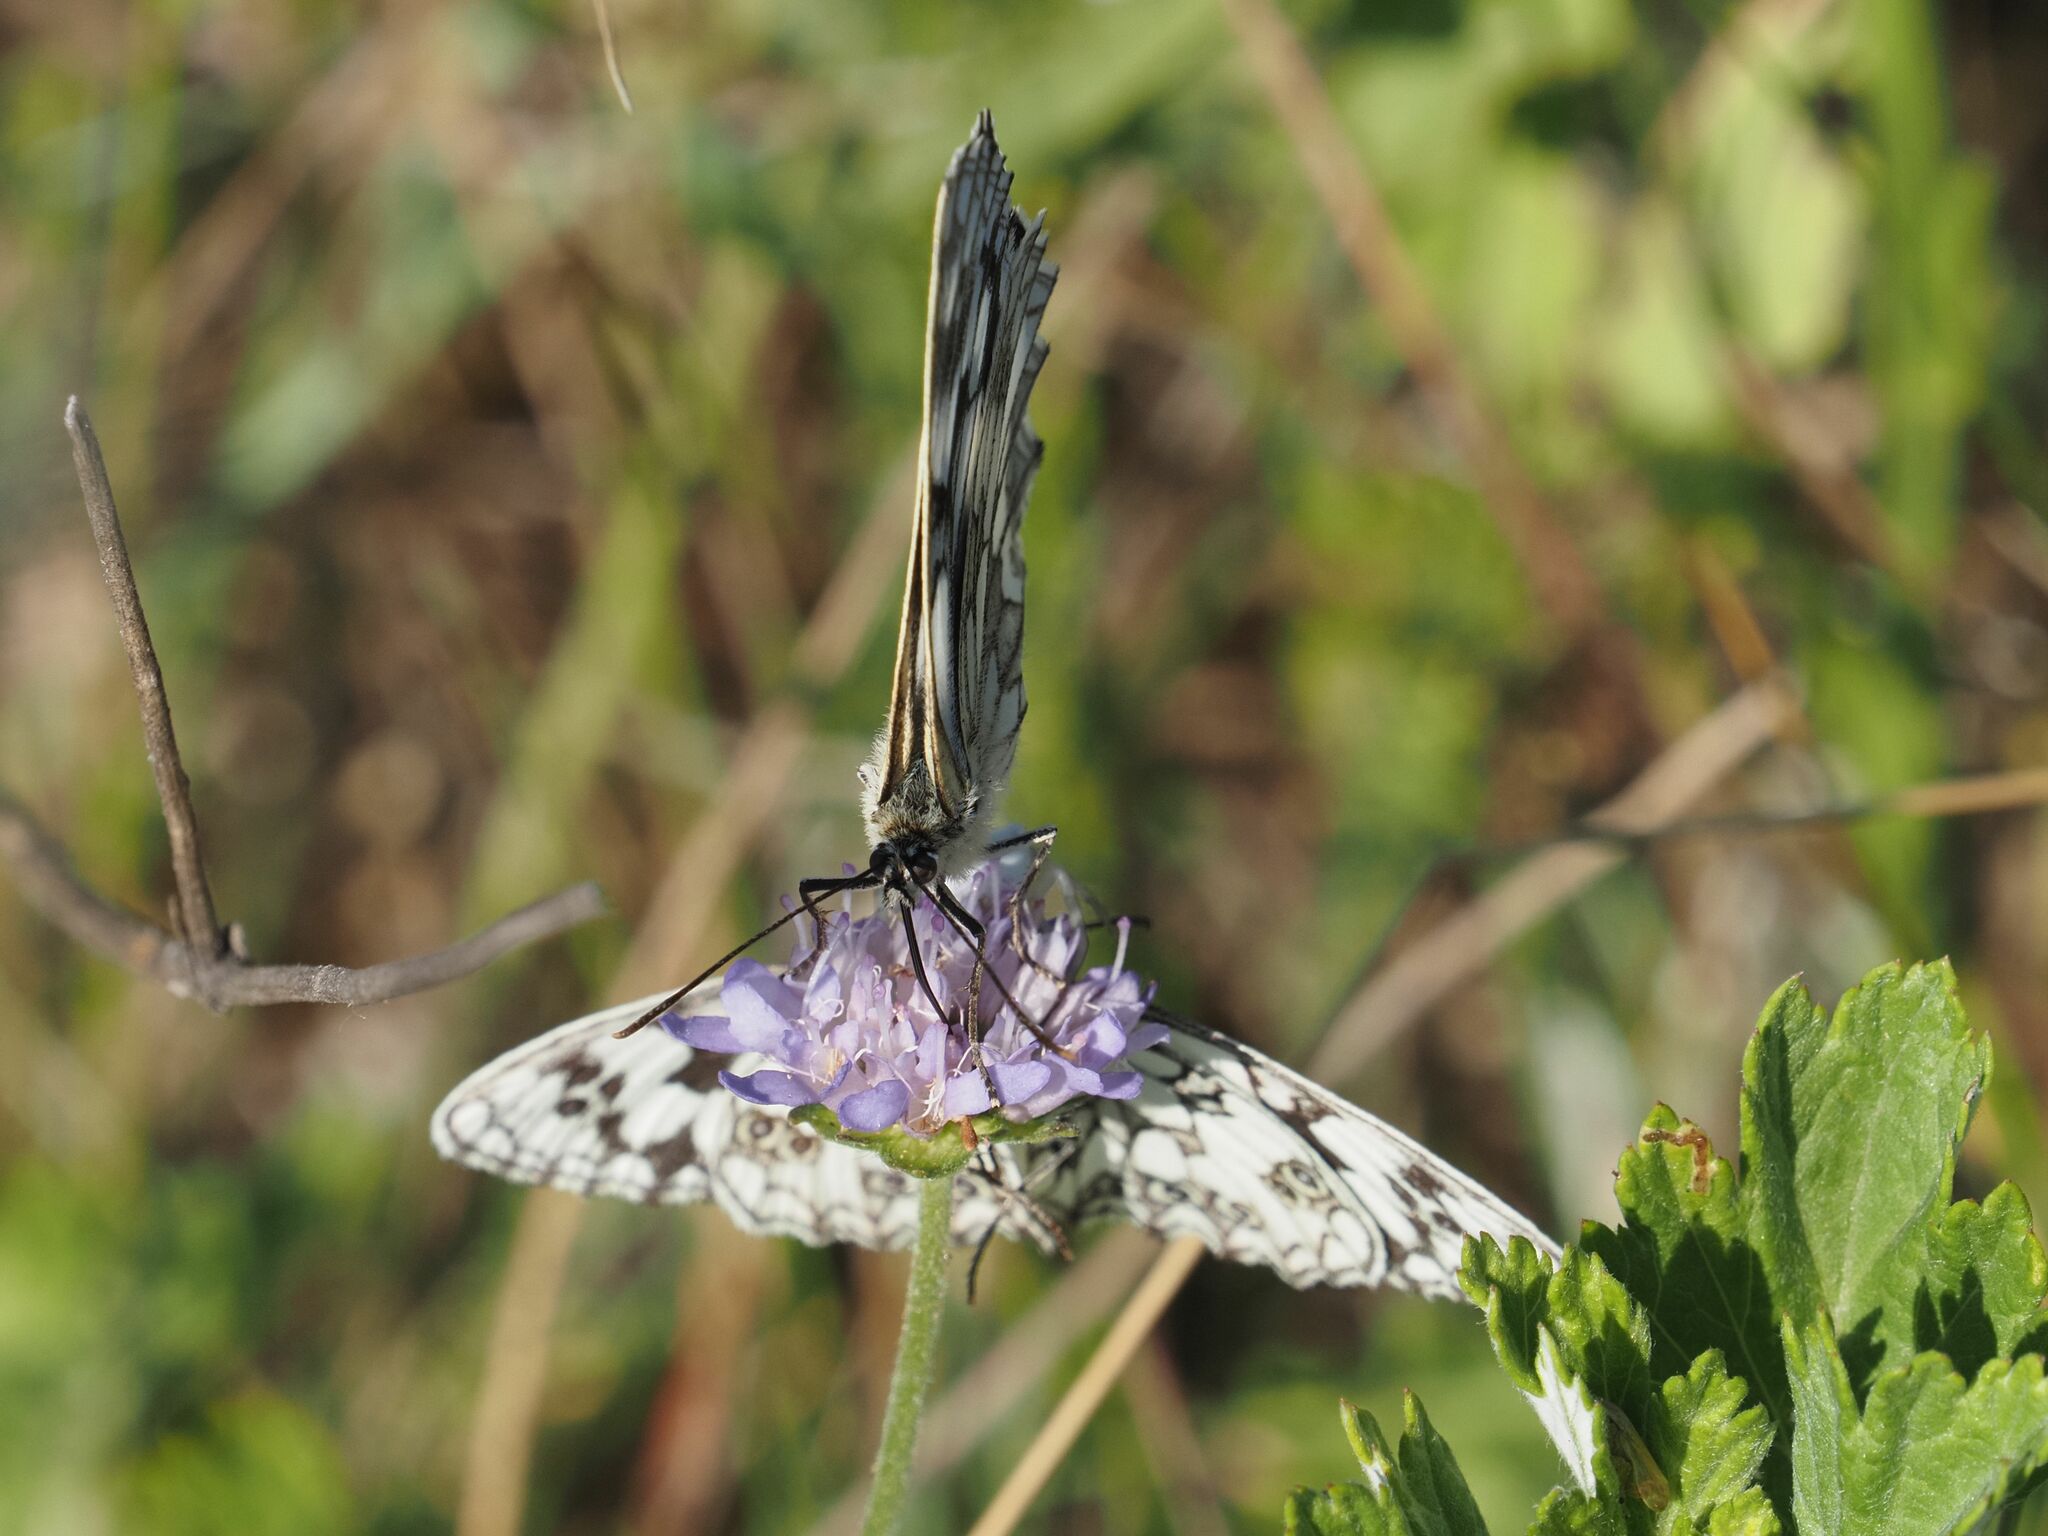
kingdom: Animalia
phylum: Arthropoda
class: Insecta
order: Lepidoptera
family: Nymphalidae
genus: Melanargia
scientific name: Melanargia galathea
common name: Marbled white
